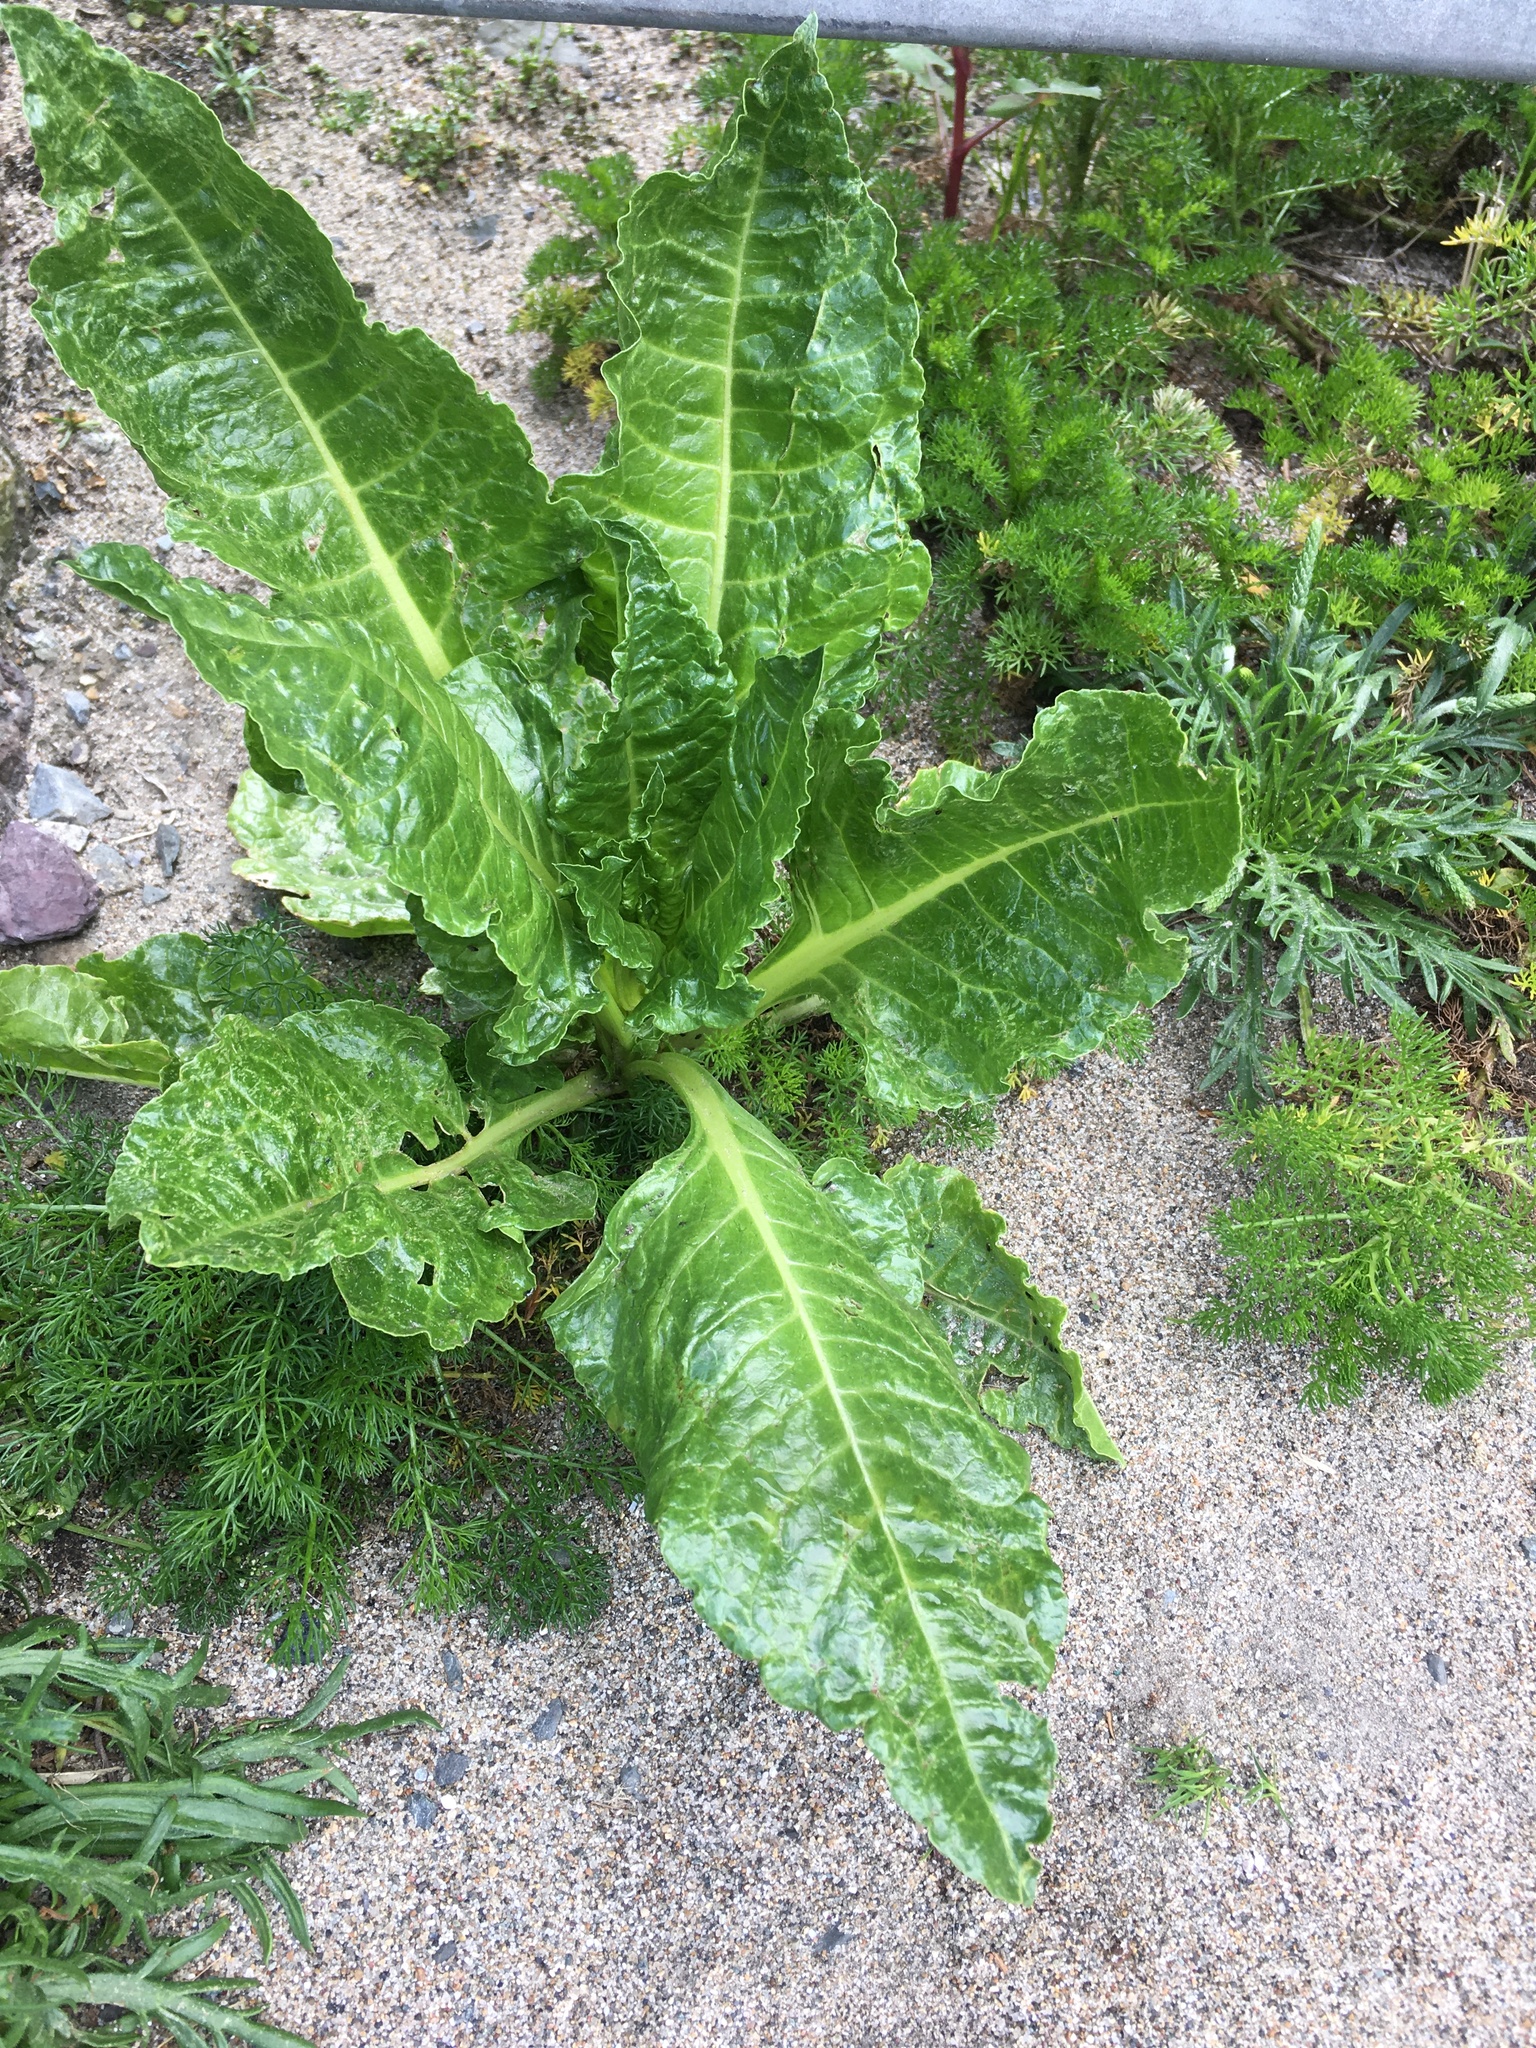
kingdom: Plantae
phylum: Tracheophyta
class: Magnoliopsida
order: Caryophyllales
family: Amaranthaceae
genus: Beta
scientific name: Beta vulgaris
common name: Beet
